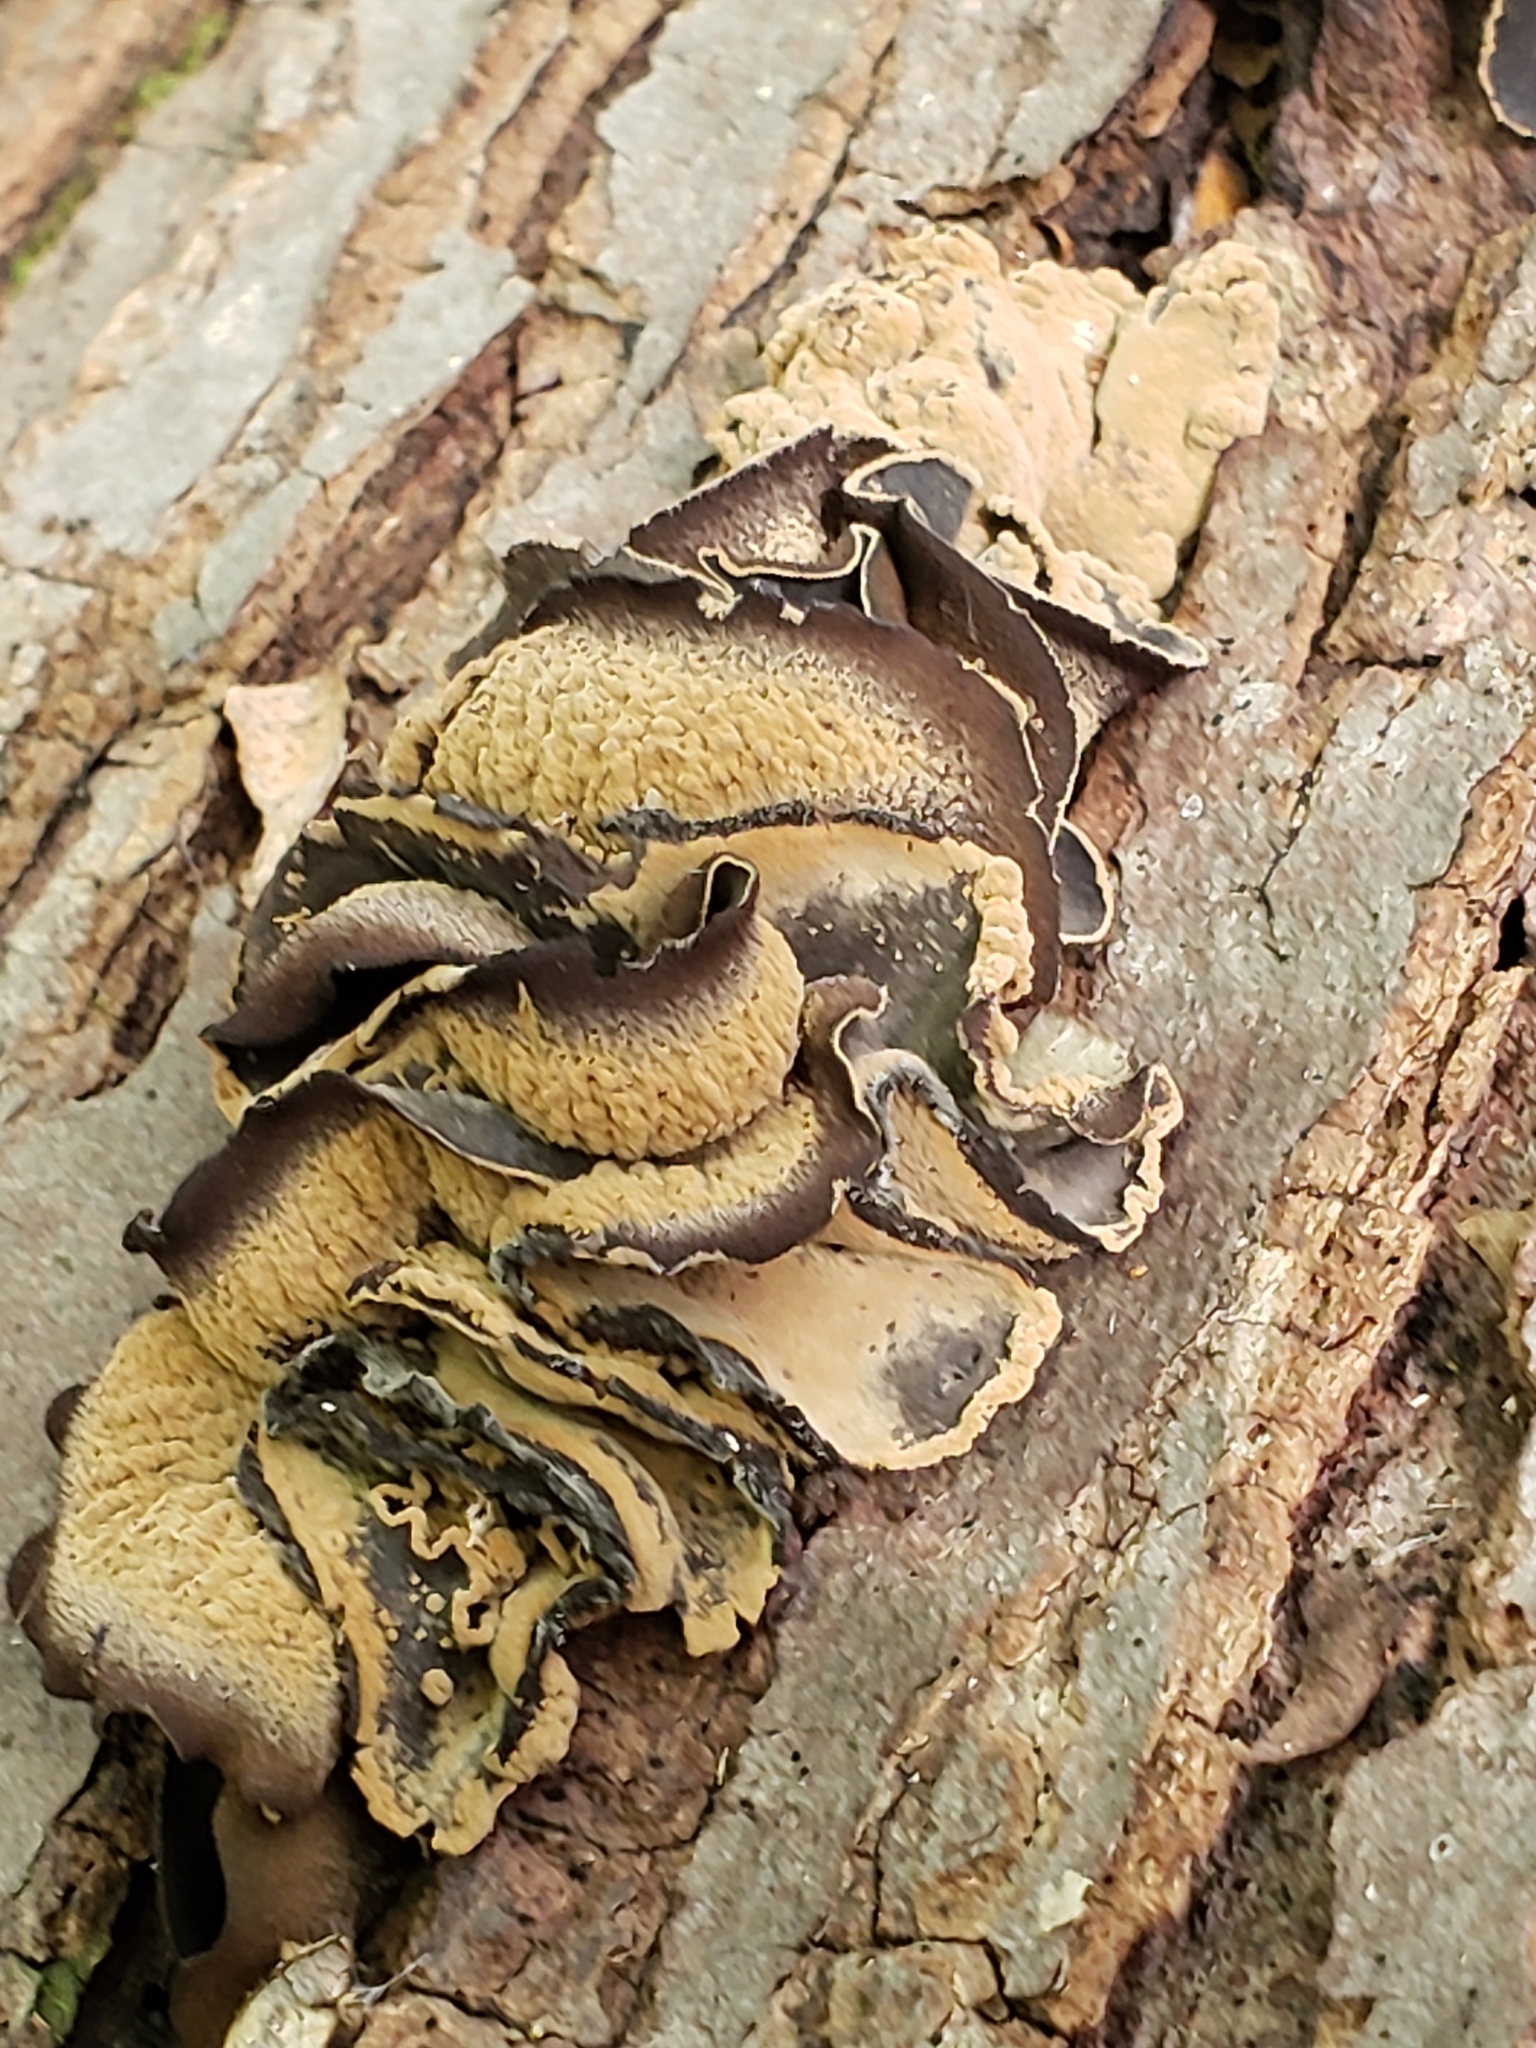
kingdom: Fungi
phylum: Ascomycota
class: Leotiomycetes
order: Helotiales
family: Cordieritidaceae
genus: Diplocarpa
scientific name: Diplocarpa irregularis
